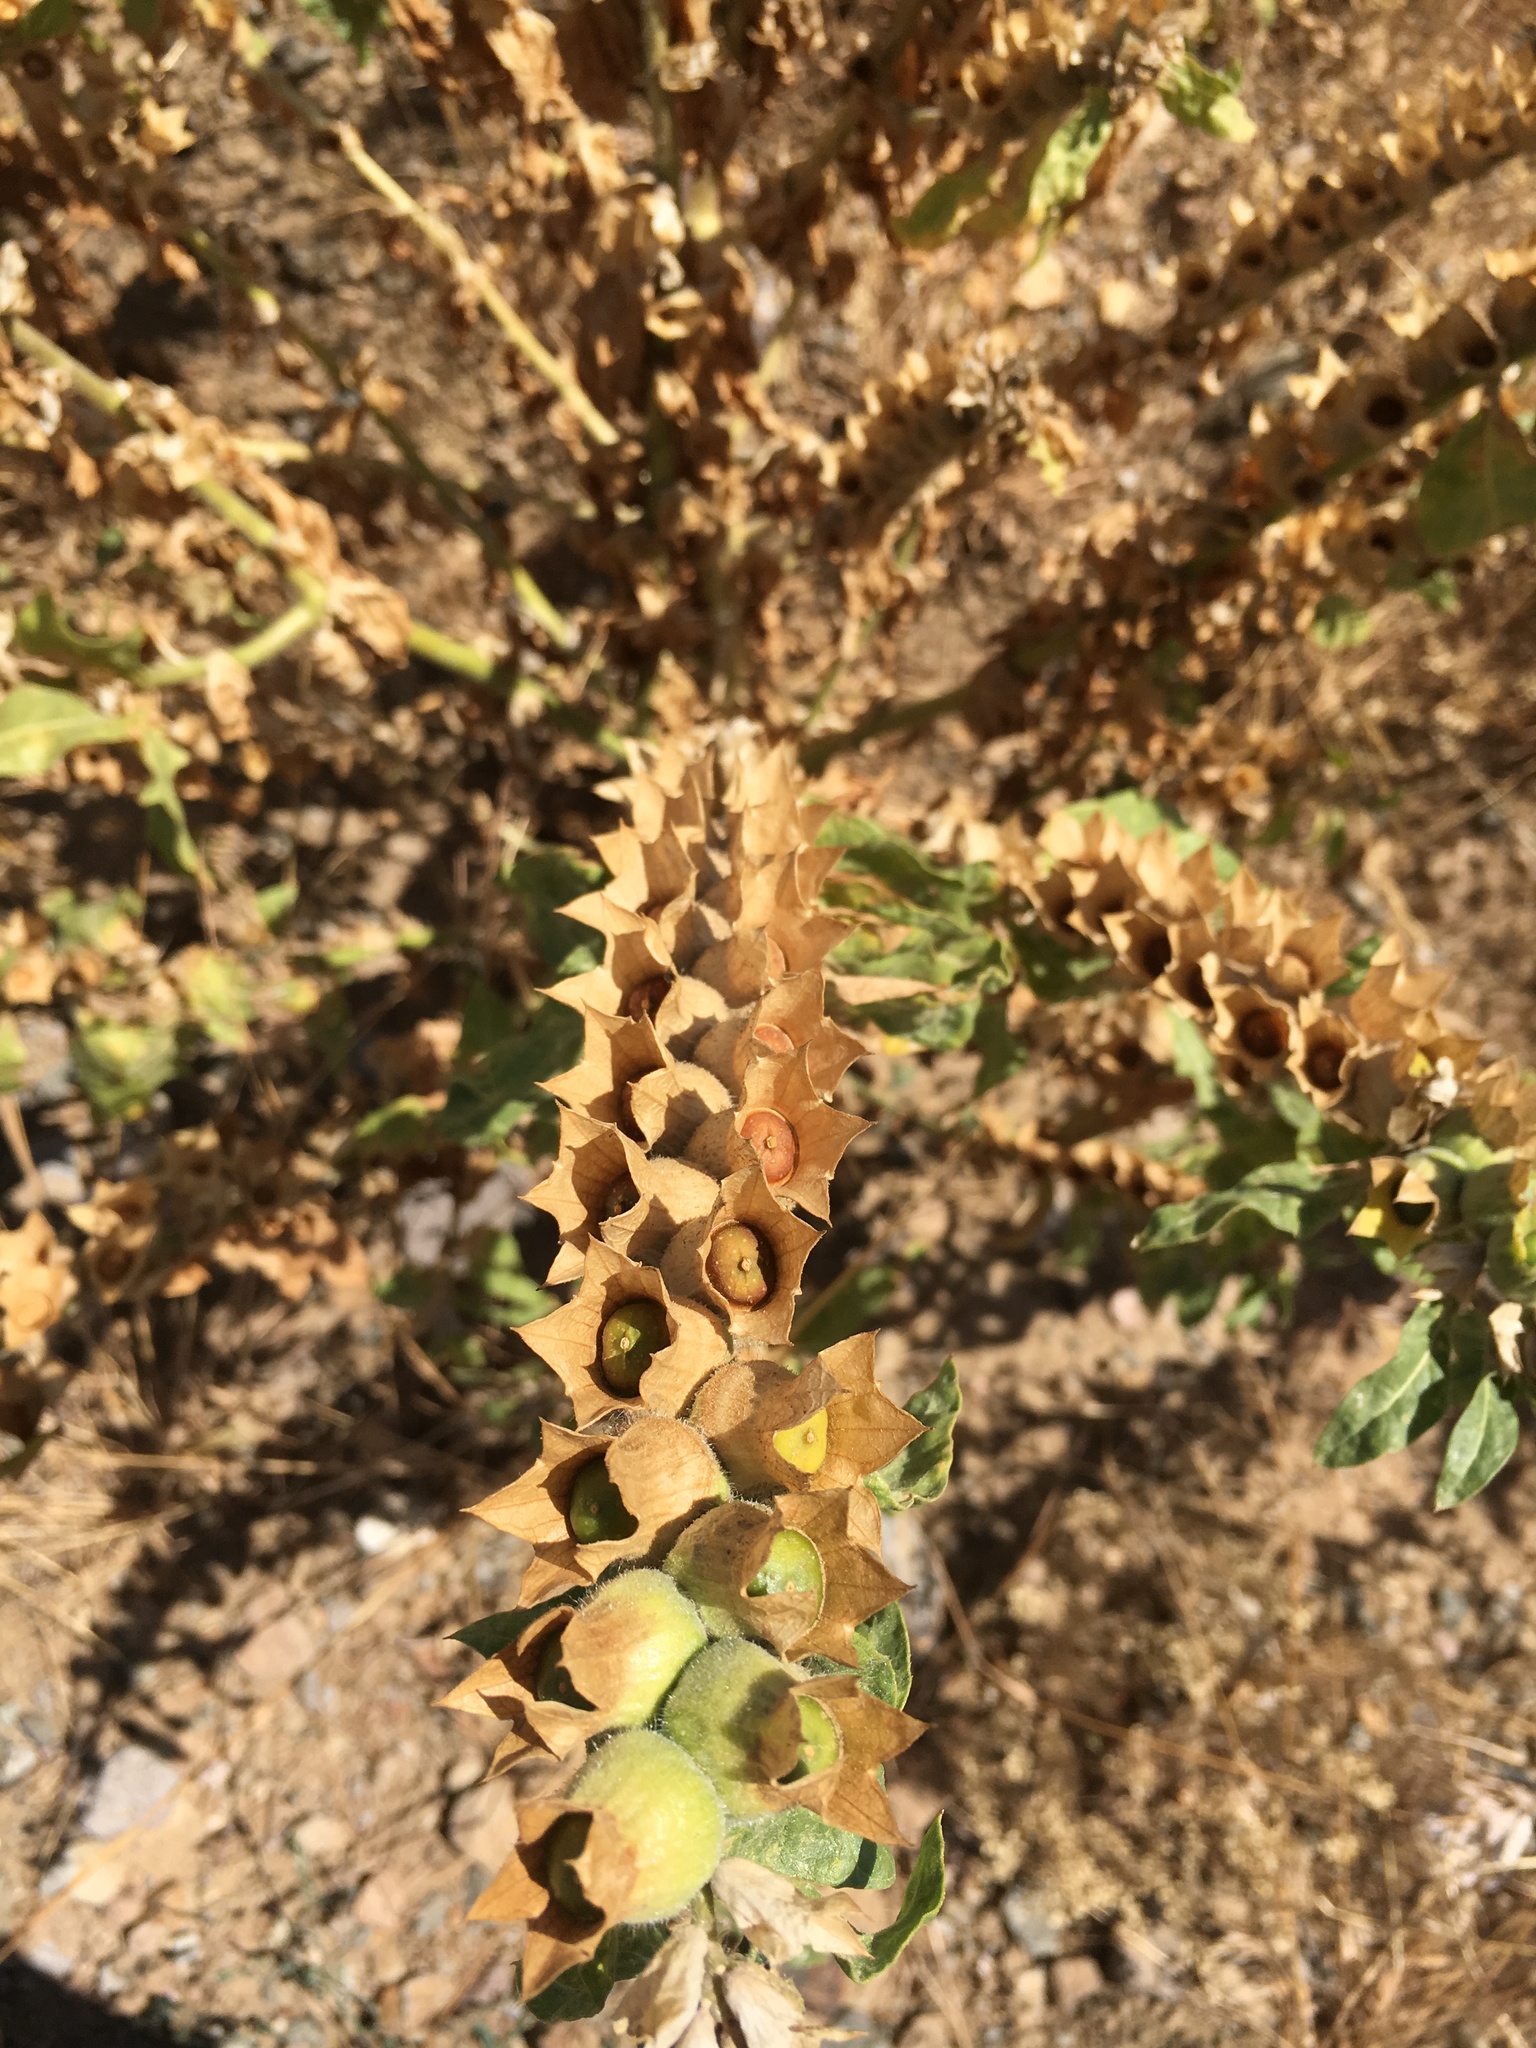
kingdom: Plantae
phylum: Tracheophyta
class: Magnoliopsida
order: Solanales
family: Solanaceae
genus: Hyoscyamus
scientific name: Hyoscyamus niger
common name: Henbane
